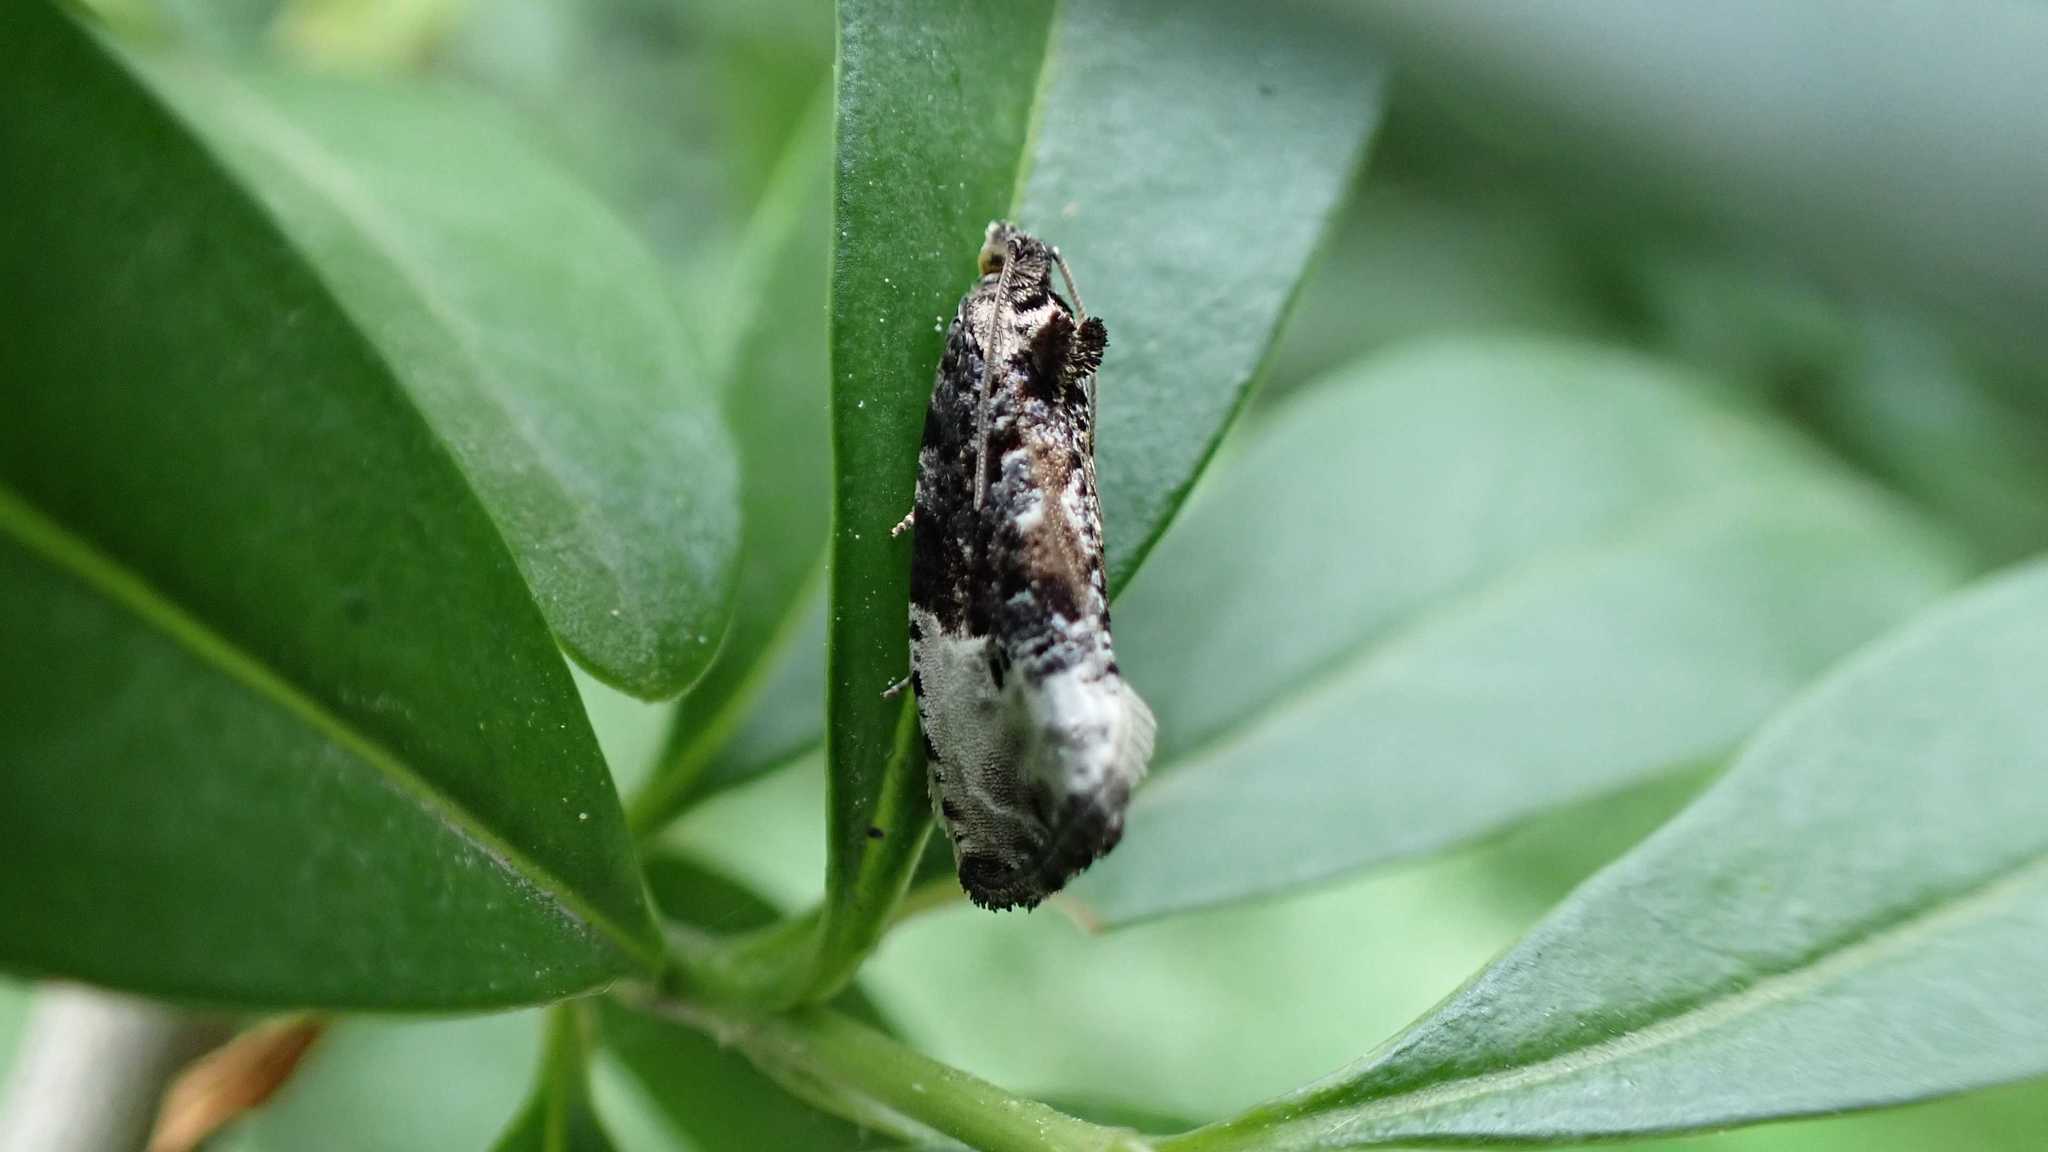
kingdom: Animalia
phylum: Arthropoda
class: Insecta
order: Lepidoptera
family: Tortricidae
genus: Hedya
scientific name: Hedya nubiferana
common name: Marbled orchard tortrix
